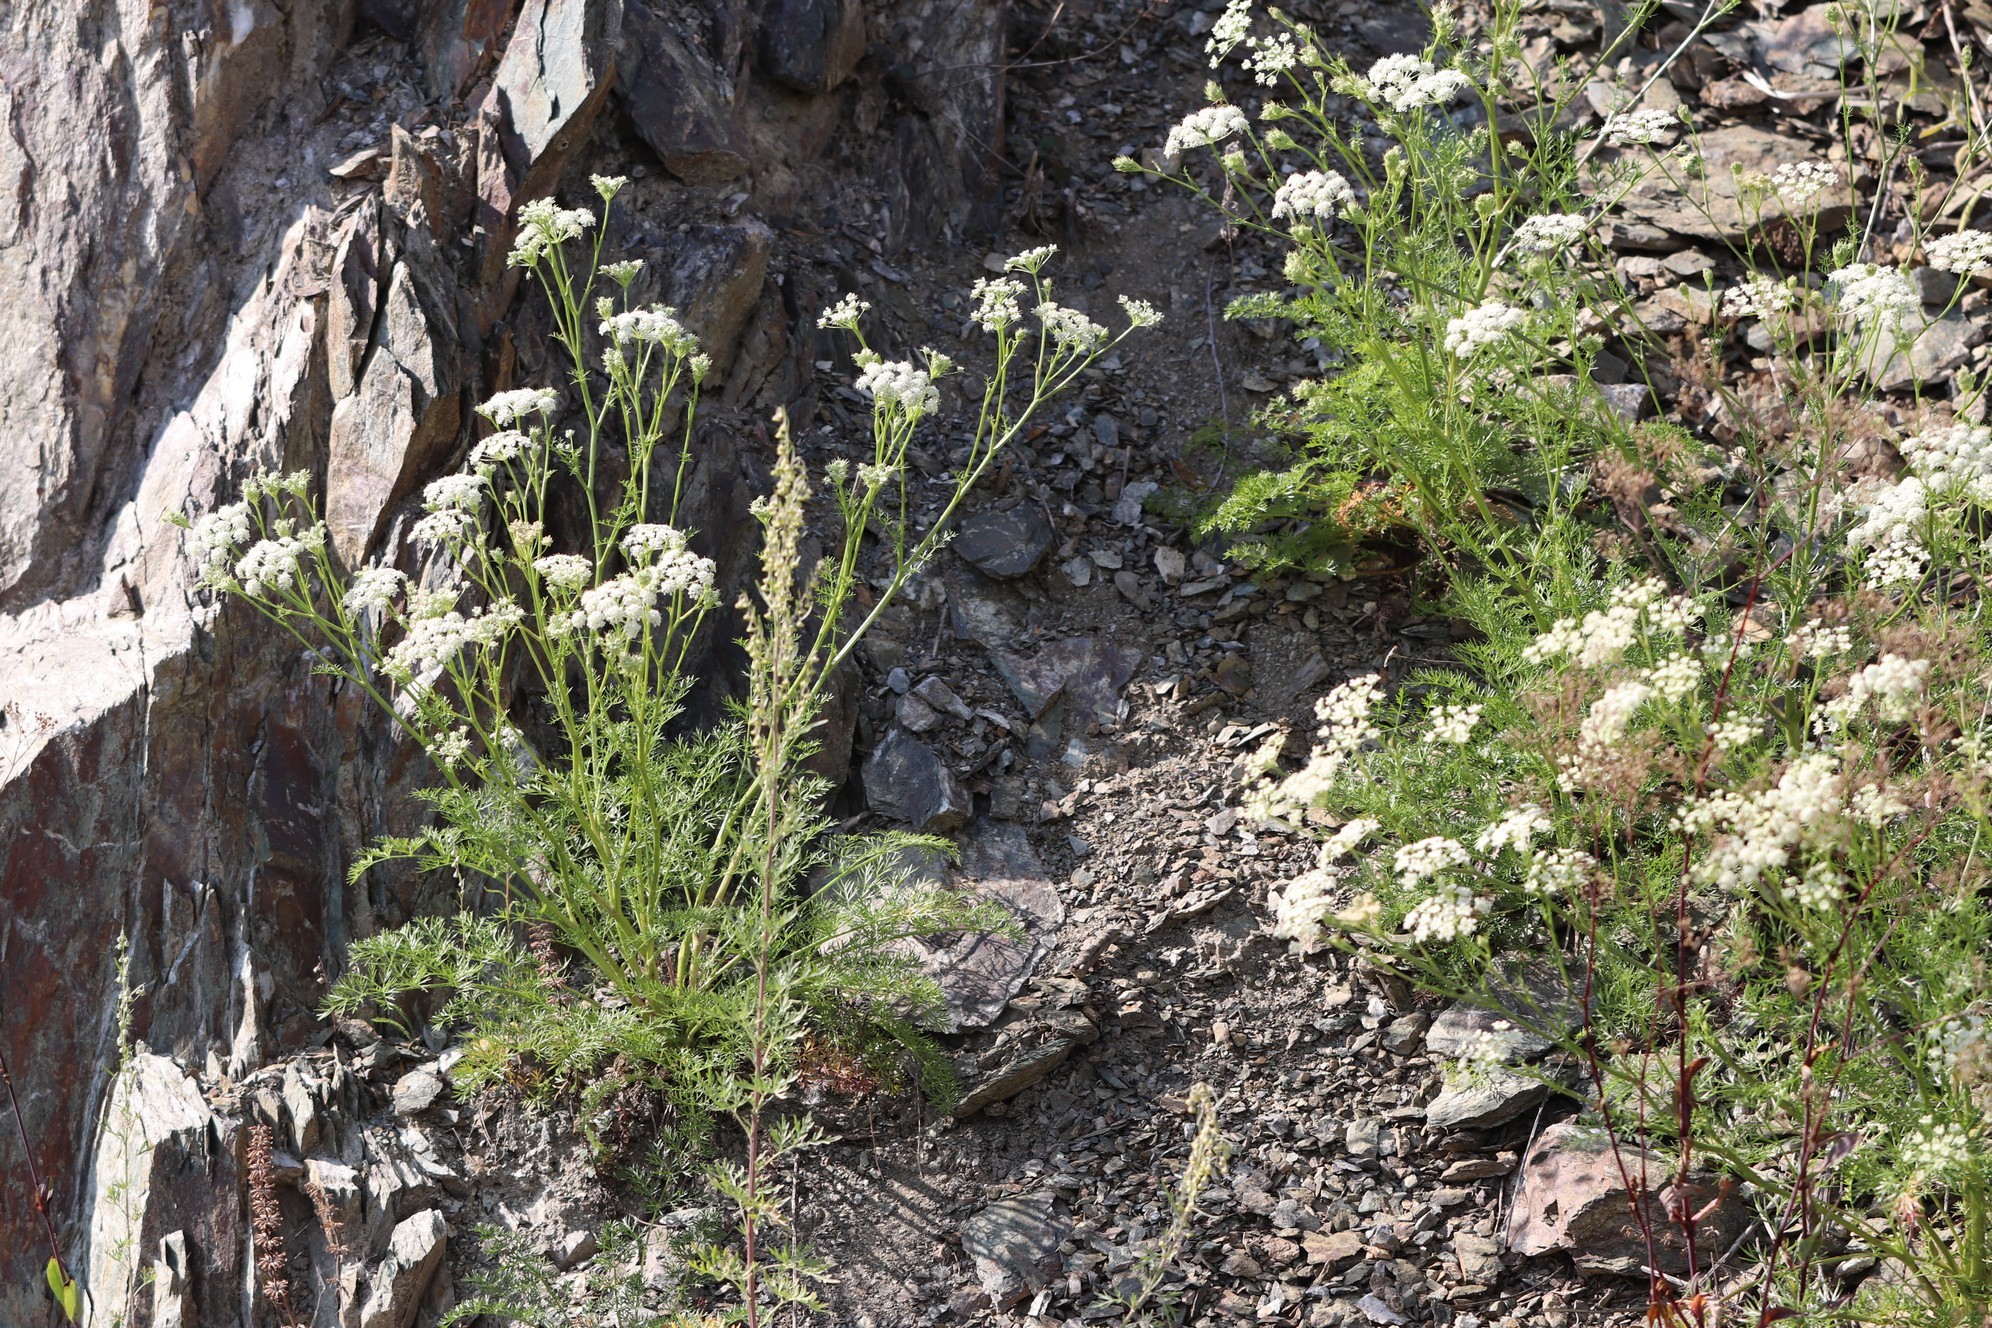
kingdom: Plantae
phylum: Tracheophyta
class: Magnoliopsida
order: Apiales
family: Apiaceae
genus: Kitagawia
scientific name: Kitagawia baicalensis
